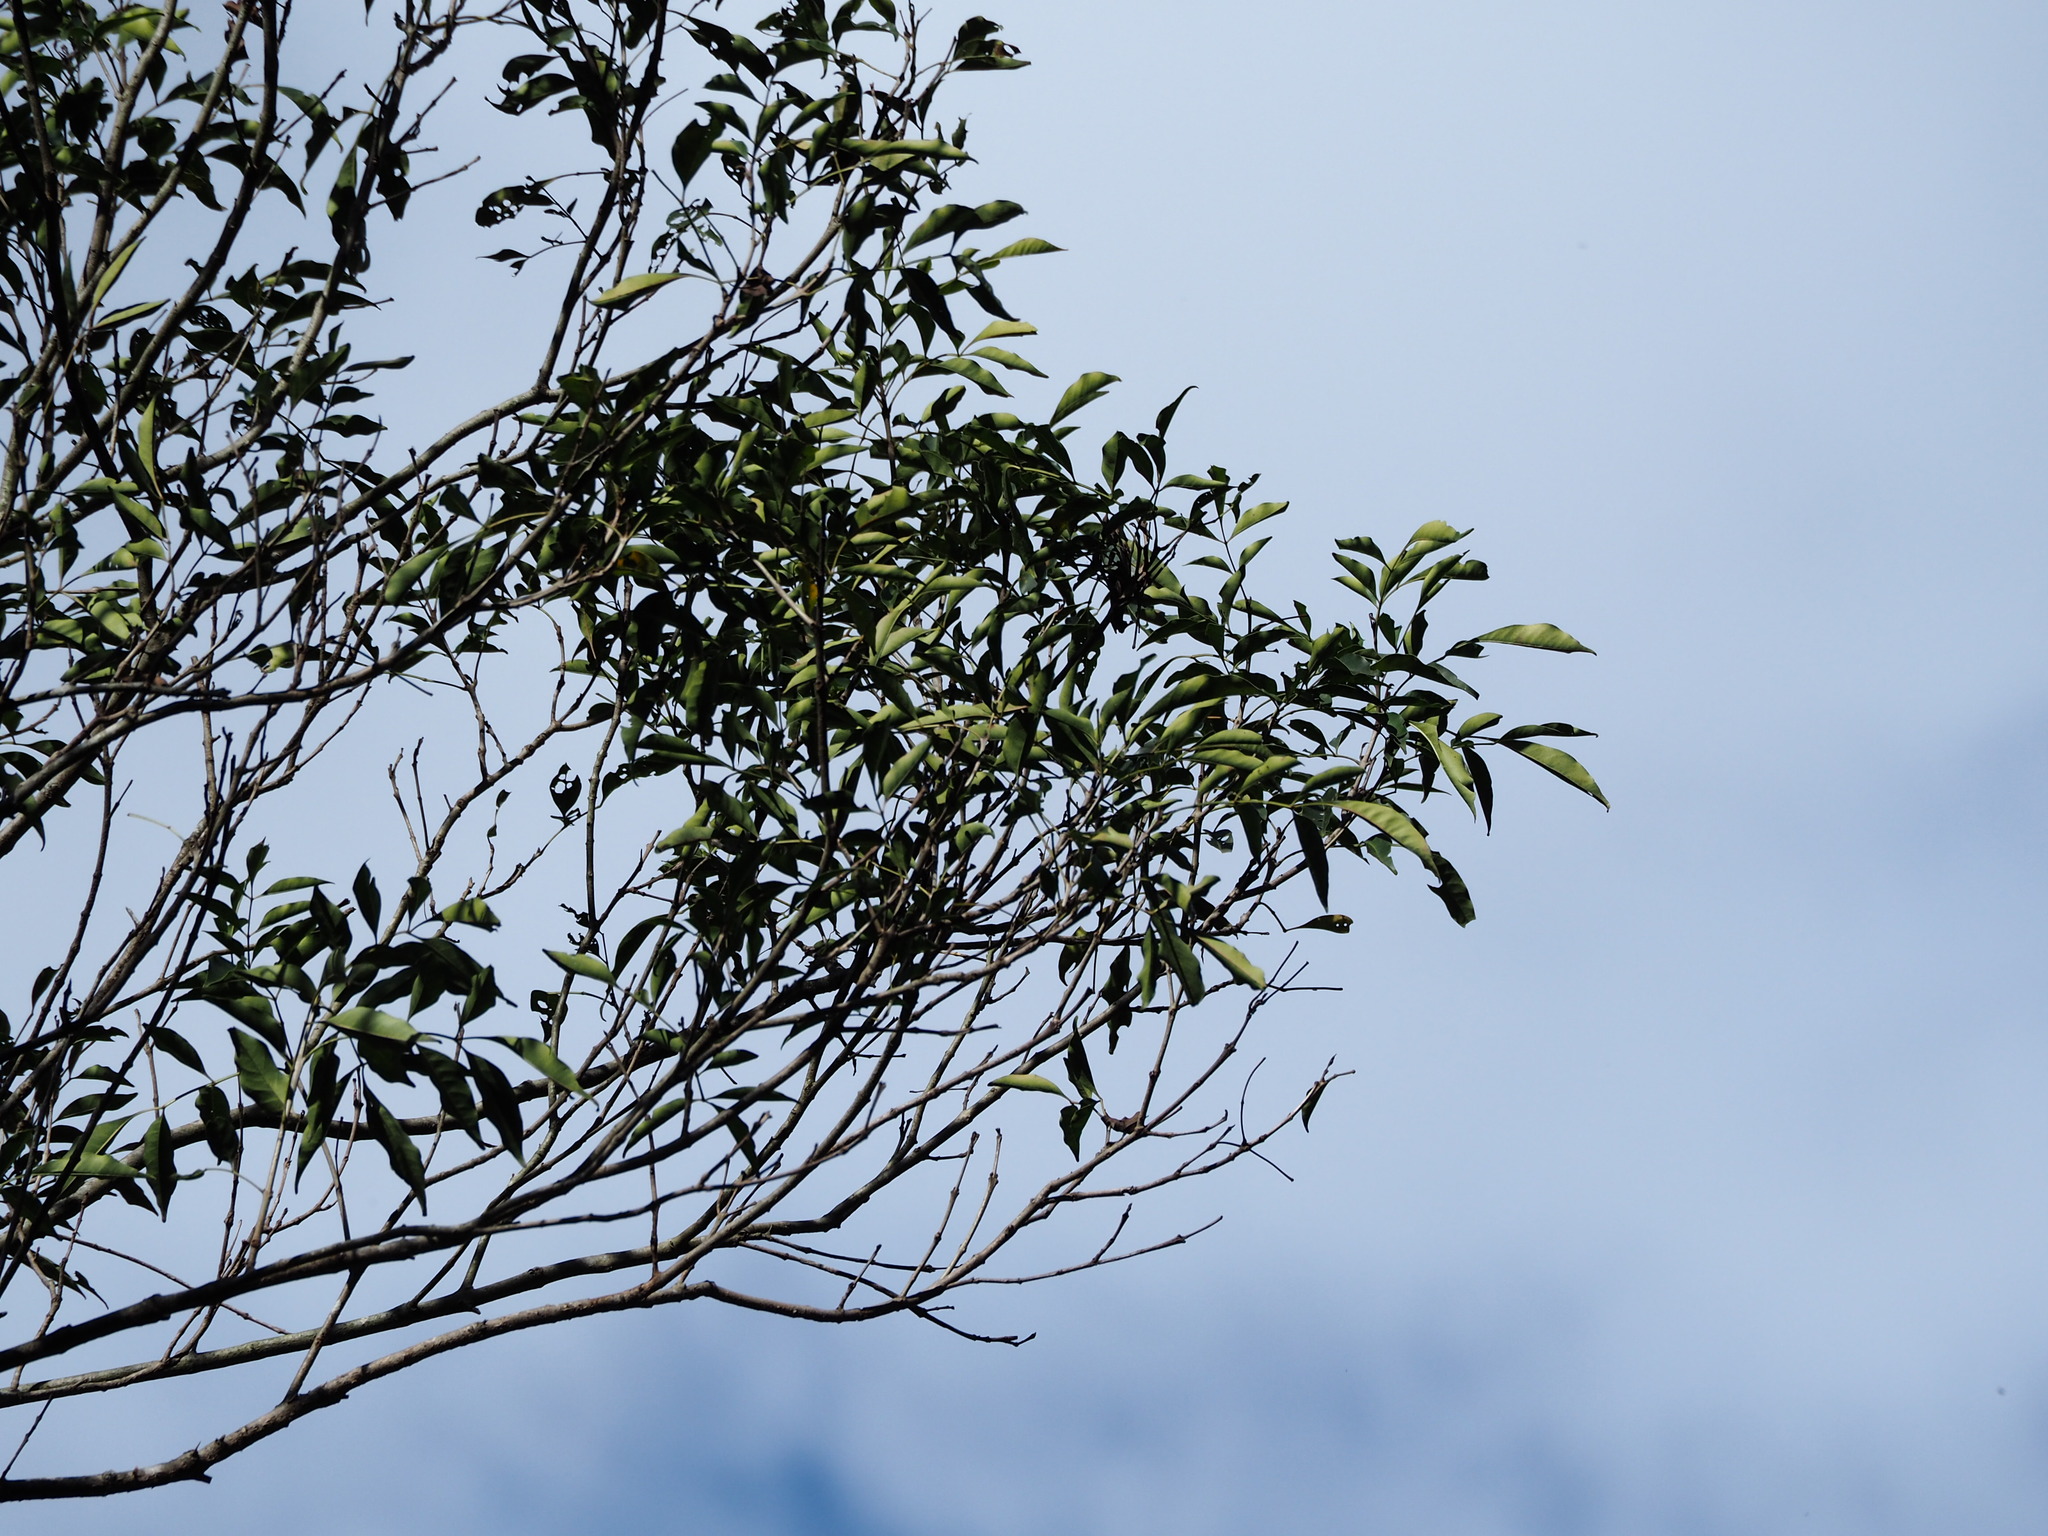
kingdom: Plantae
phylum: Tracheophyta
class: Magnoliopsida
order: Lamiales
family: Oleaceae
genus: Fraxinus
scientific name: Fraxinus griffithii
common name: Himalayan ash
